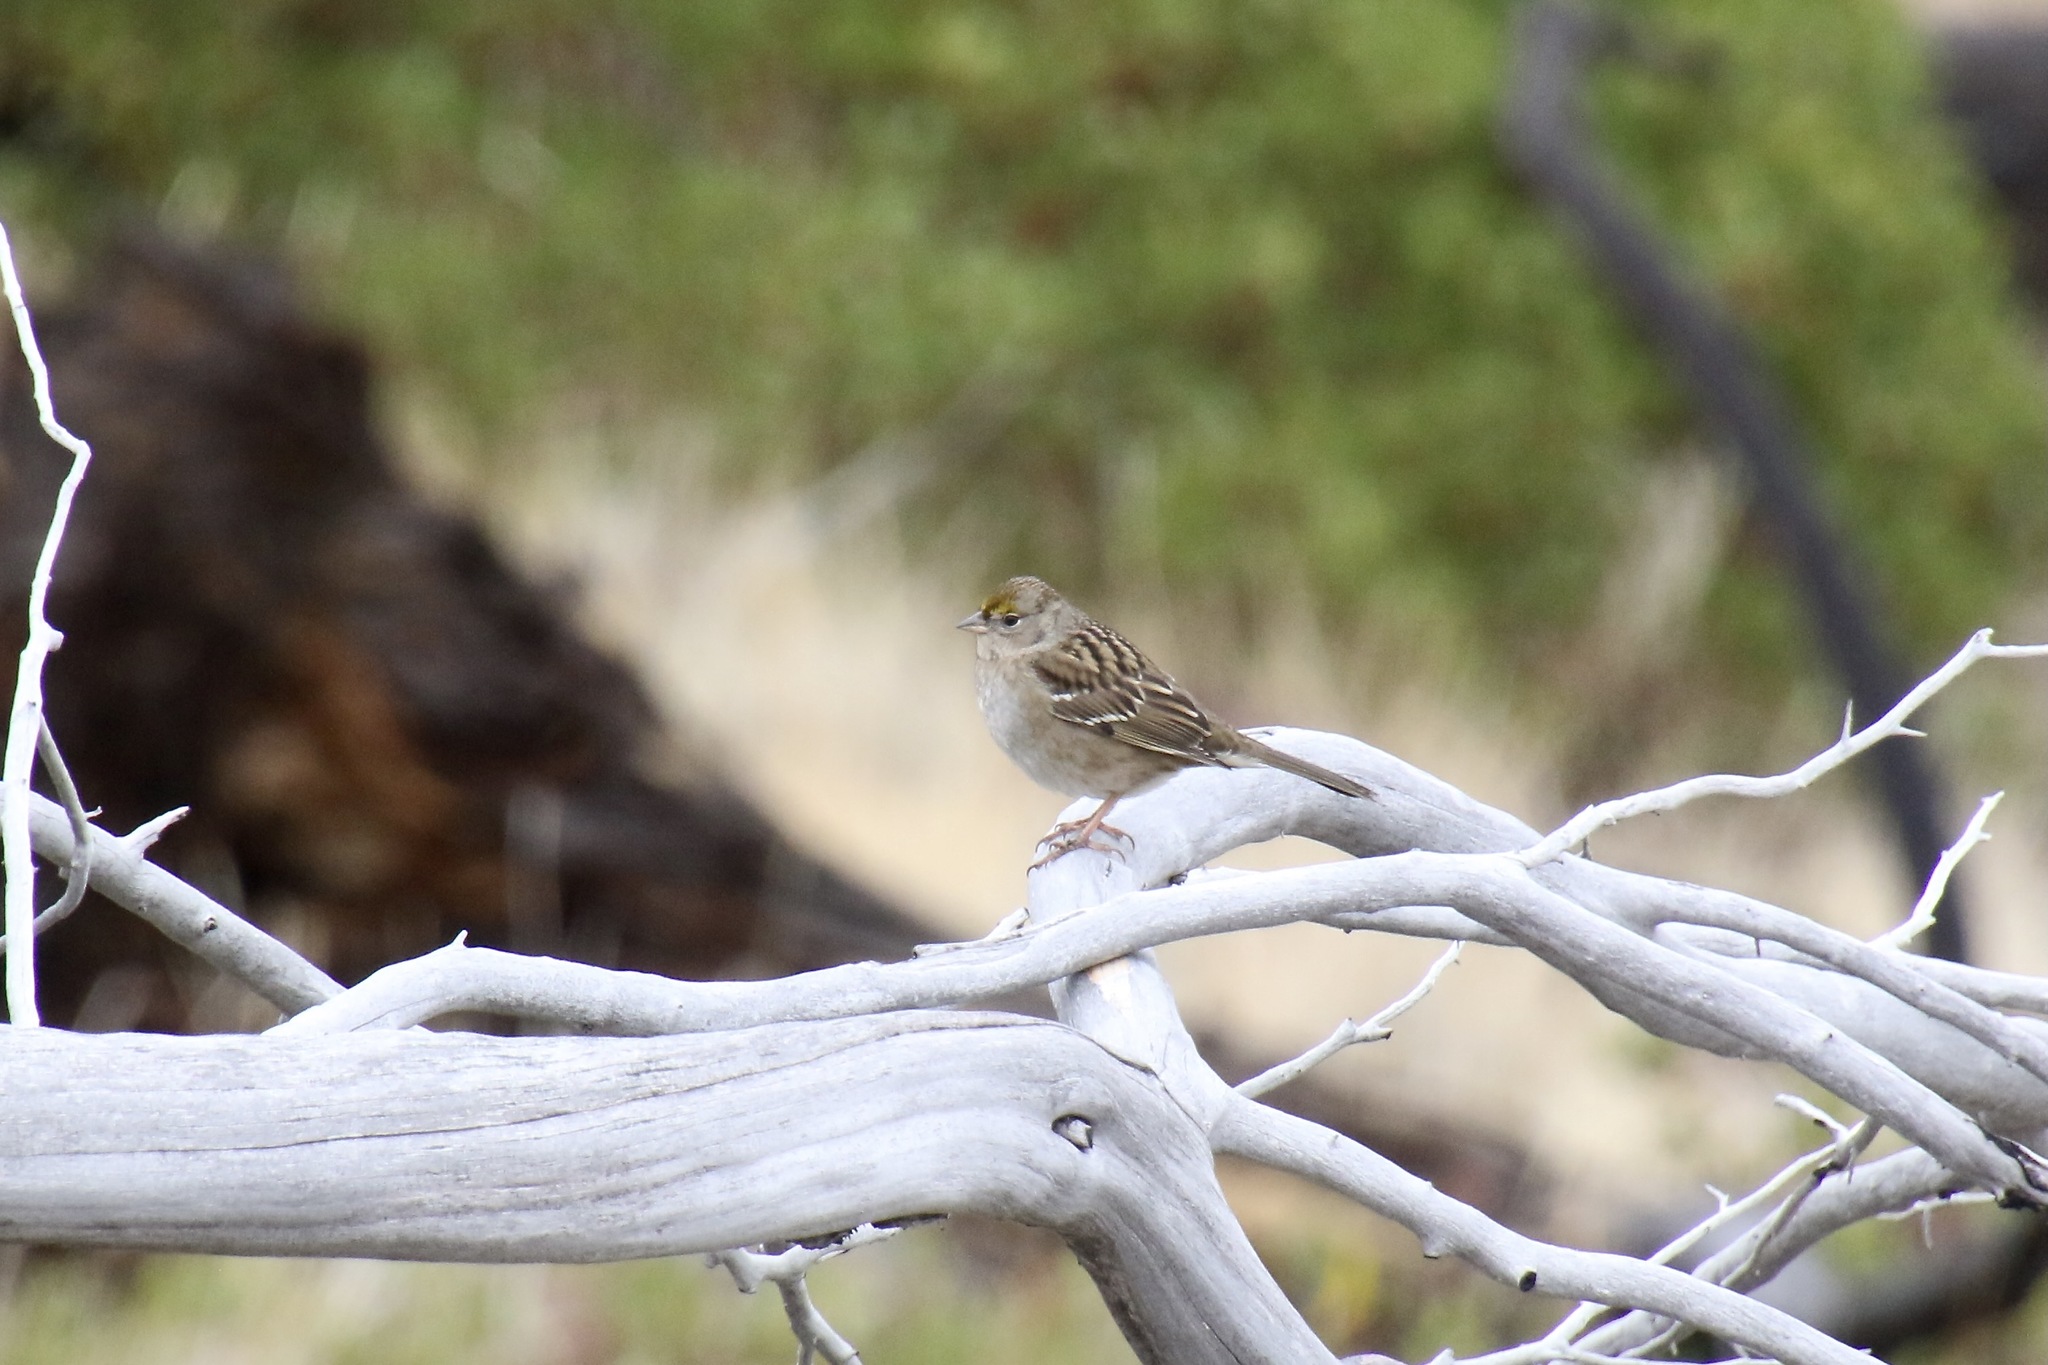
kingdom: Animalia
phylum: Chordata
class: Aves
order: Passeriformes
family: Passerellidae
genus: Zonotrichia
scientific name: Zonotrichia atricapilla
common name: Golden-crowned sparrow
